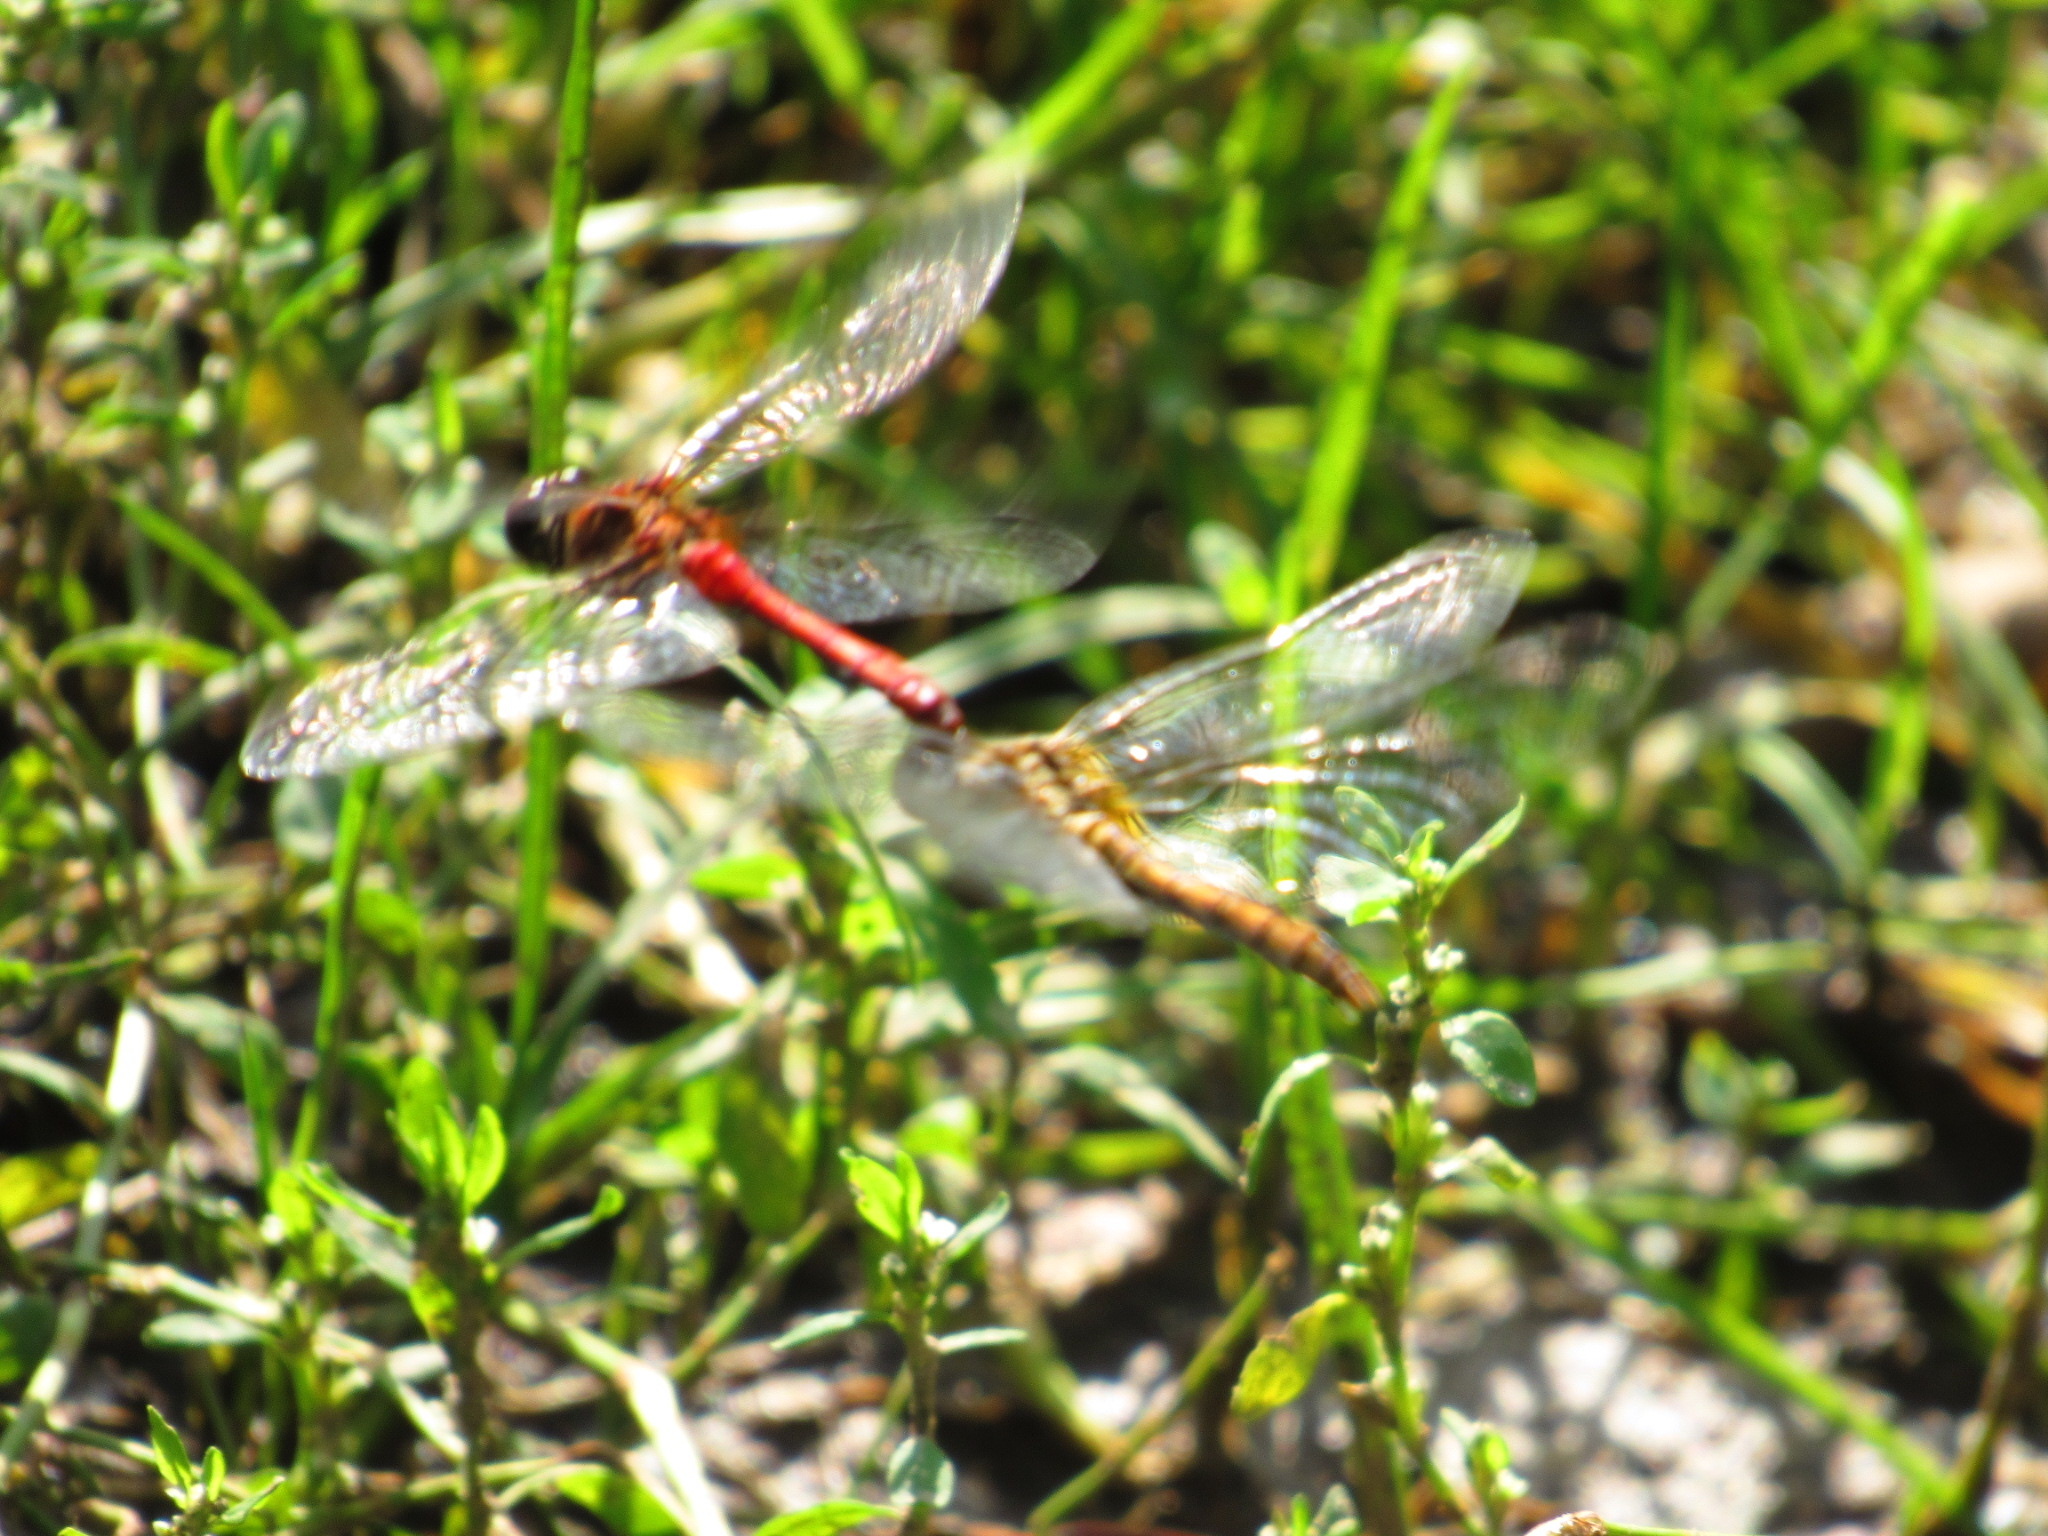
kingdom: Animalia
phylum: Arthropoda
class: Insecta
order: Odonata
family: Libellulidae
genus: Sympetrum
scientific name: Sympetrum sanguineum
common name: Ruddy darter
